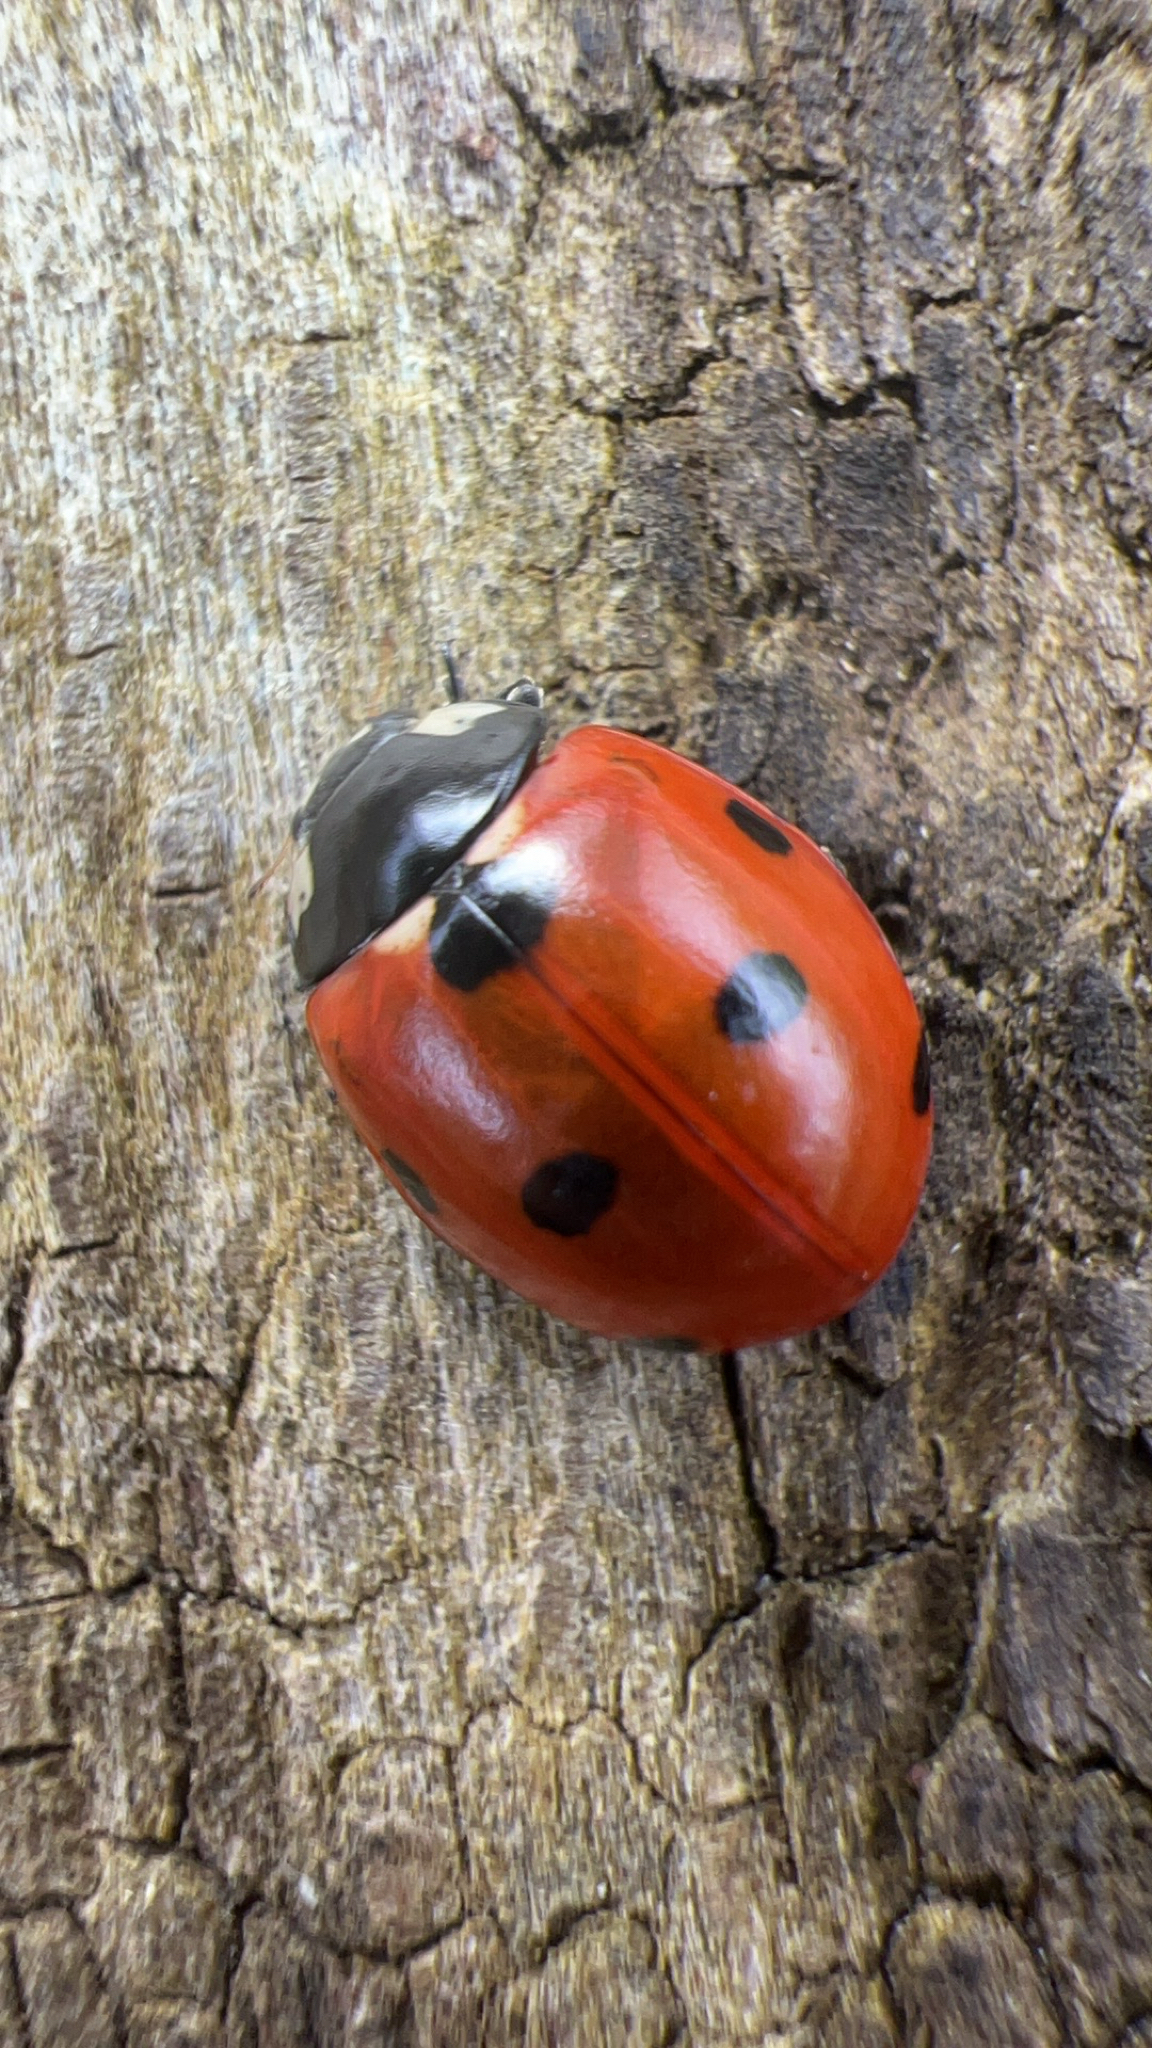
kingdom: Animalia
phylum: Arthropoda
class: Insecta
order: Coleoptera
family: Coccinellidae
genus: Coccinella
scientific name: Coccinella septempunctata
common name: Sevenspotted lady beetle
